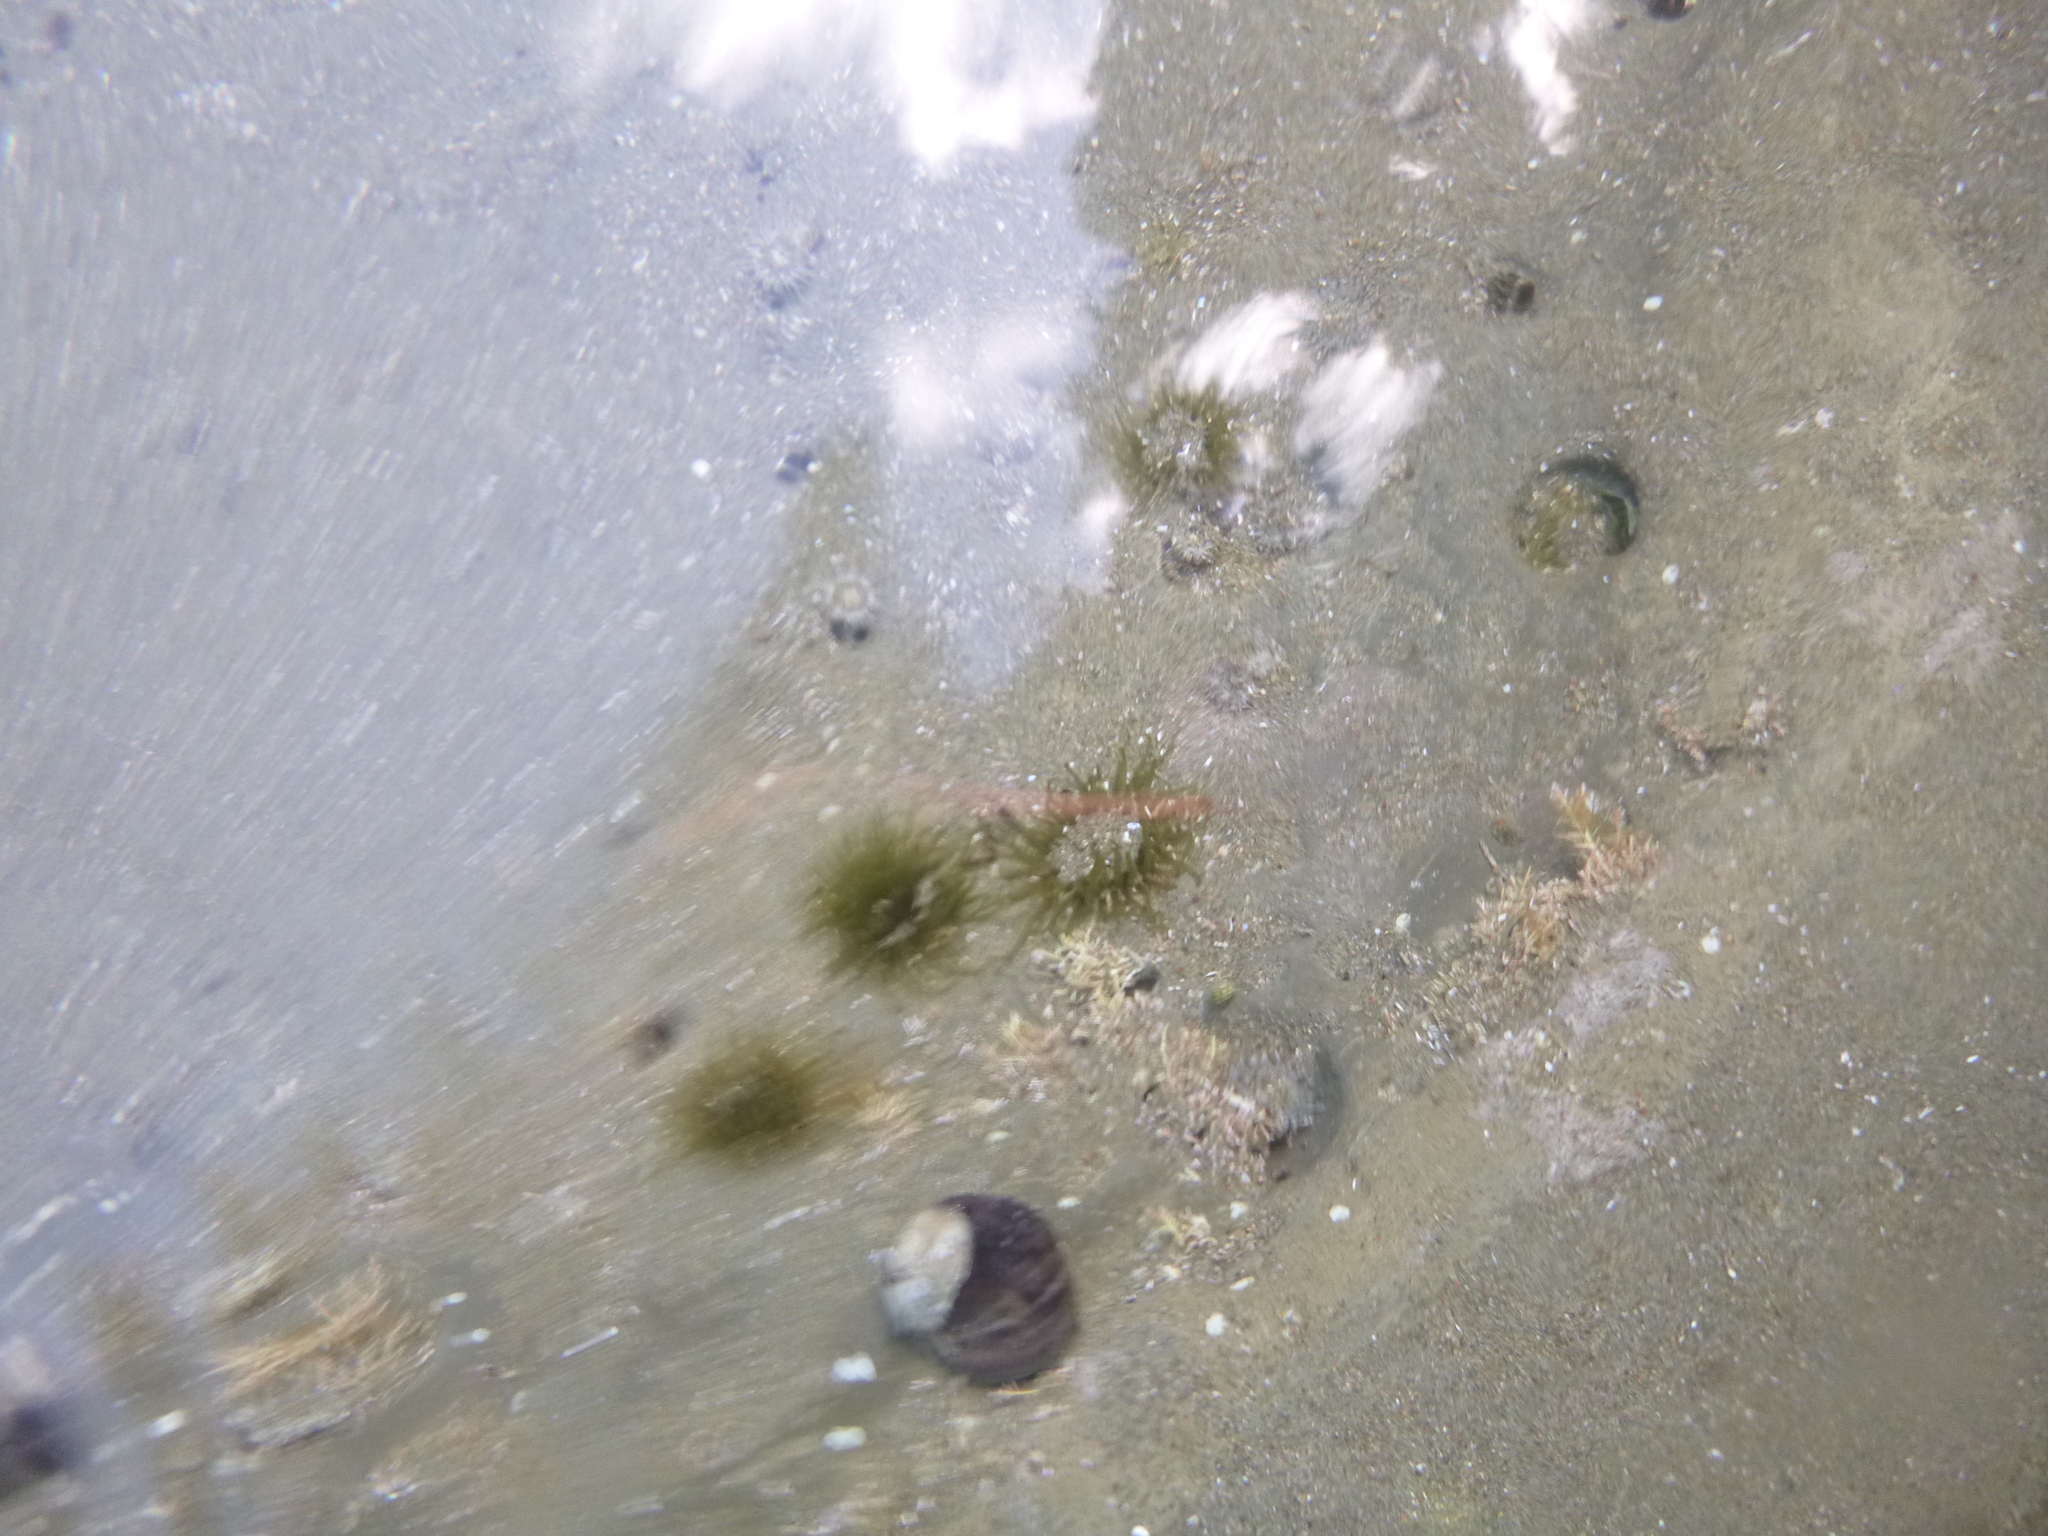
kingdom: Animalia
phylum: Cnidaria
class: Anthozoa
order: Actiniaria
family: Actiniidae
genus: Isactinia
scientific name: Isactinia olivacea
